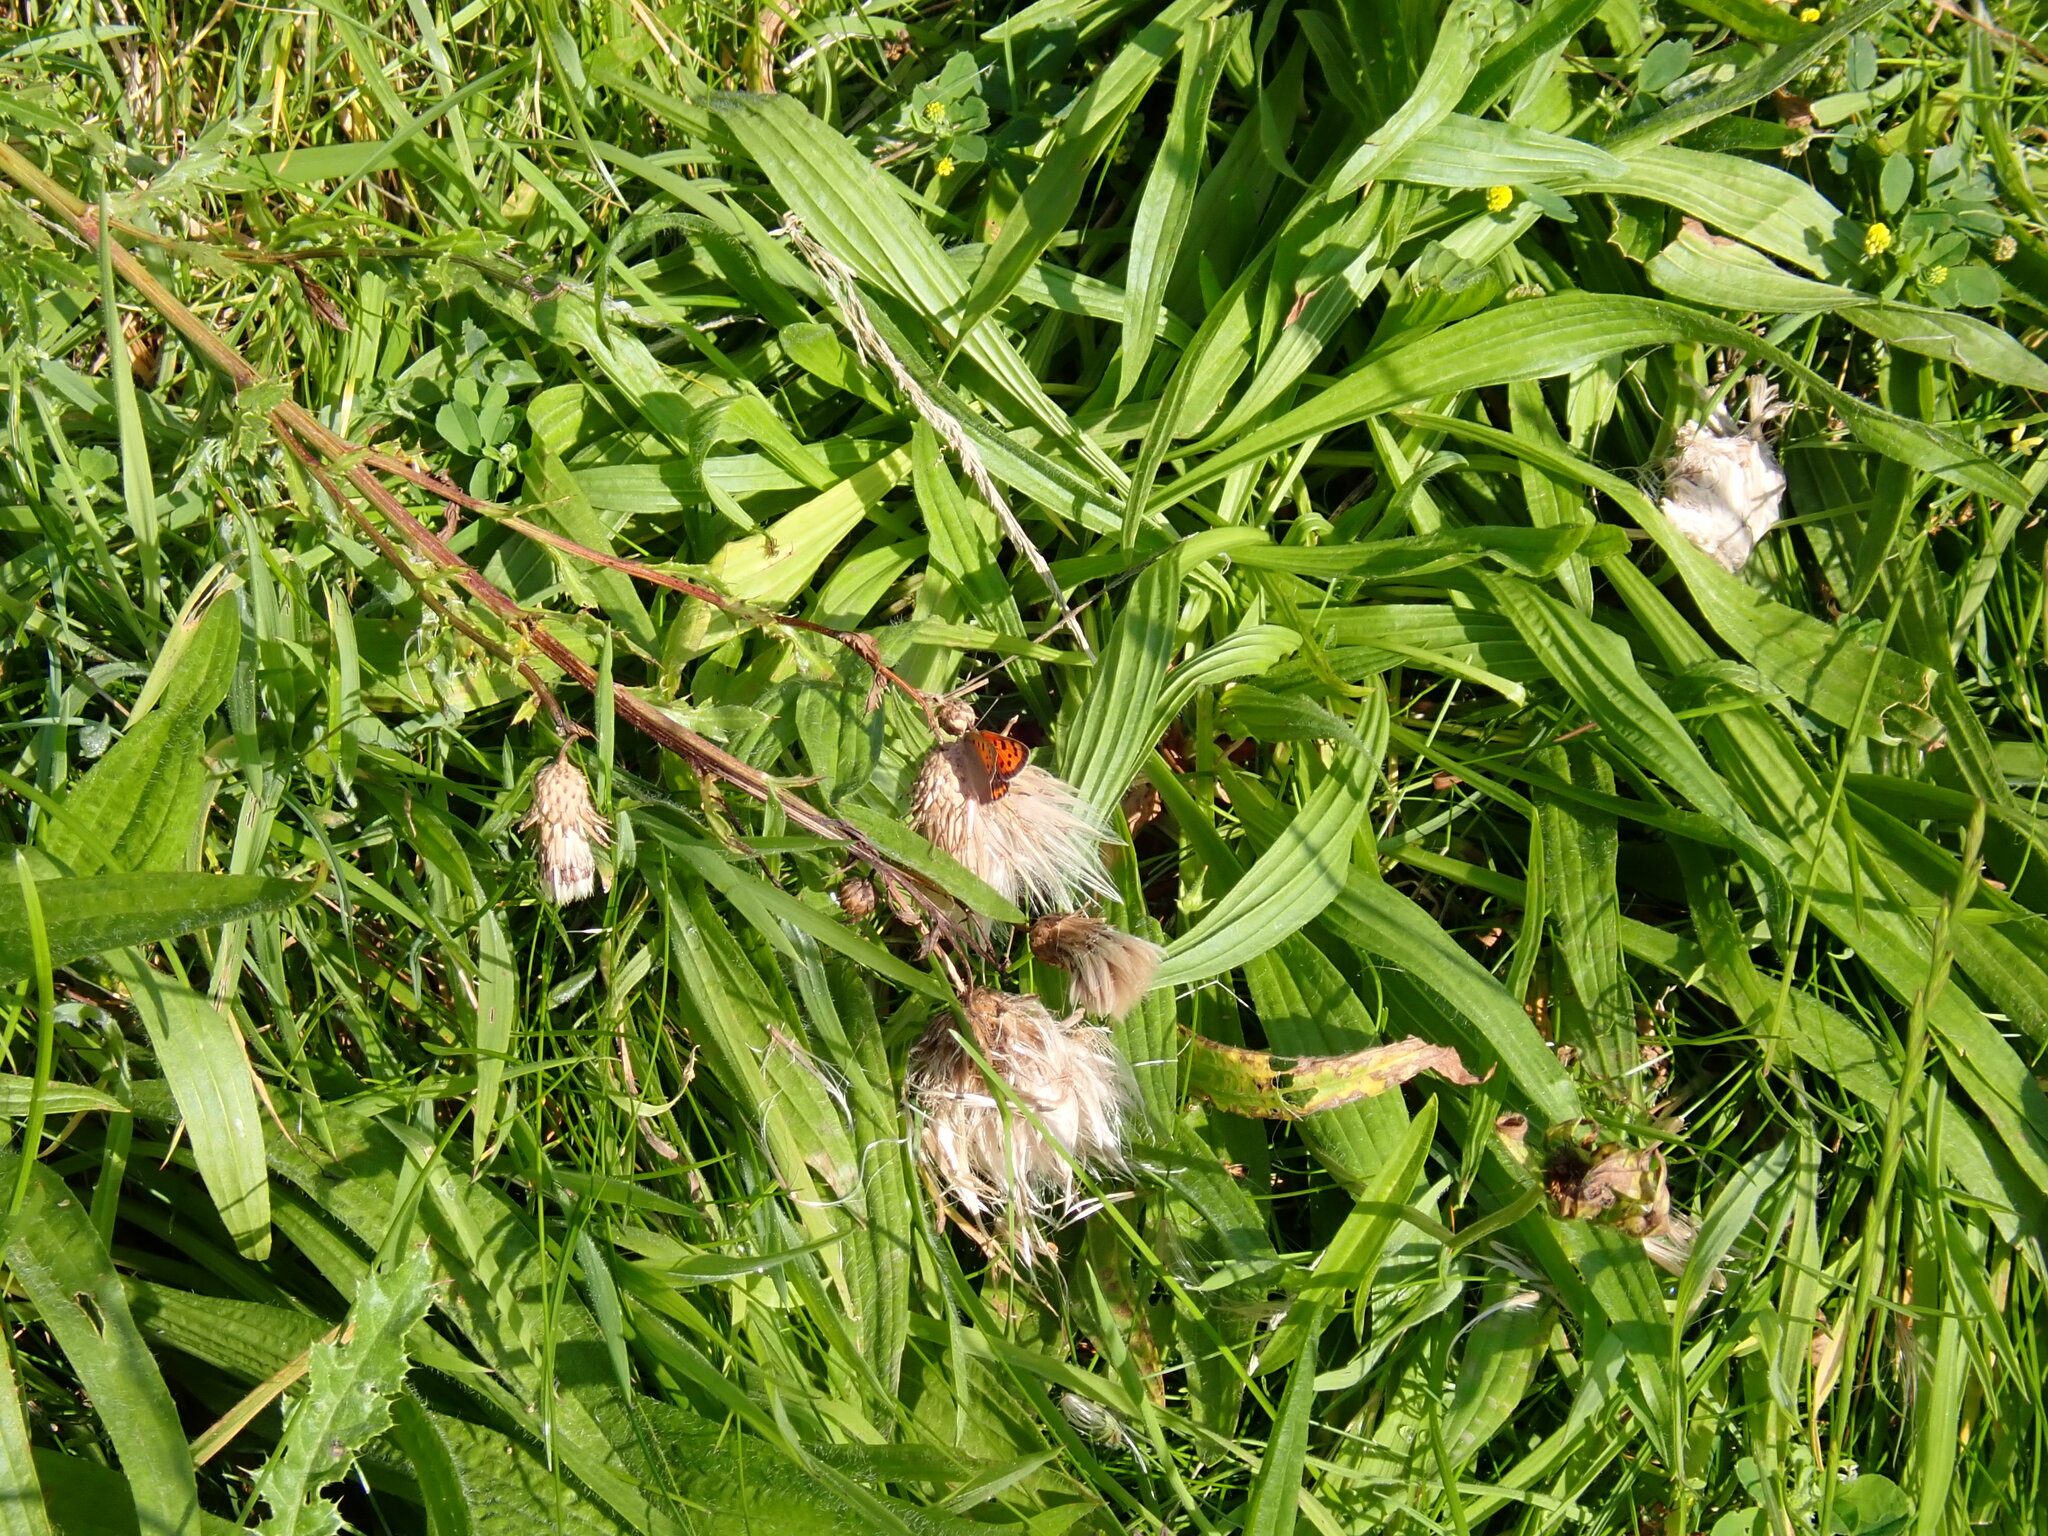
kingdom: Animalia
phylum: Arthropoda
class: Insecta
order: Lepidoptera
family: Lycaenidae
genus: Lycaena
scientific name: Lycaena phlaeas
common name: Small copper
